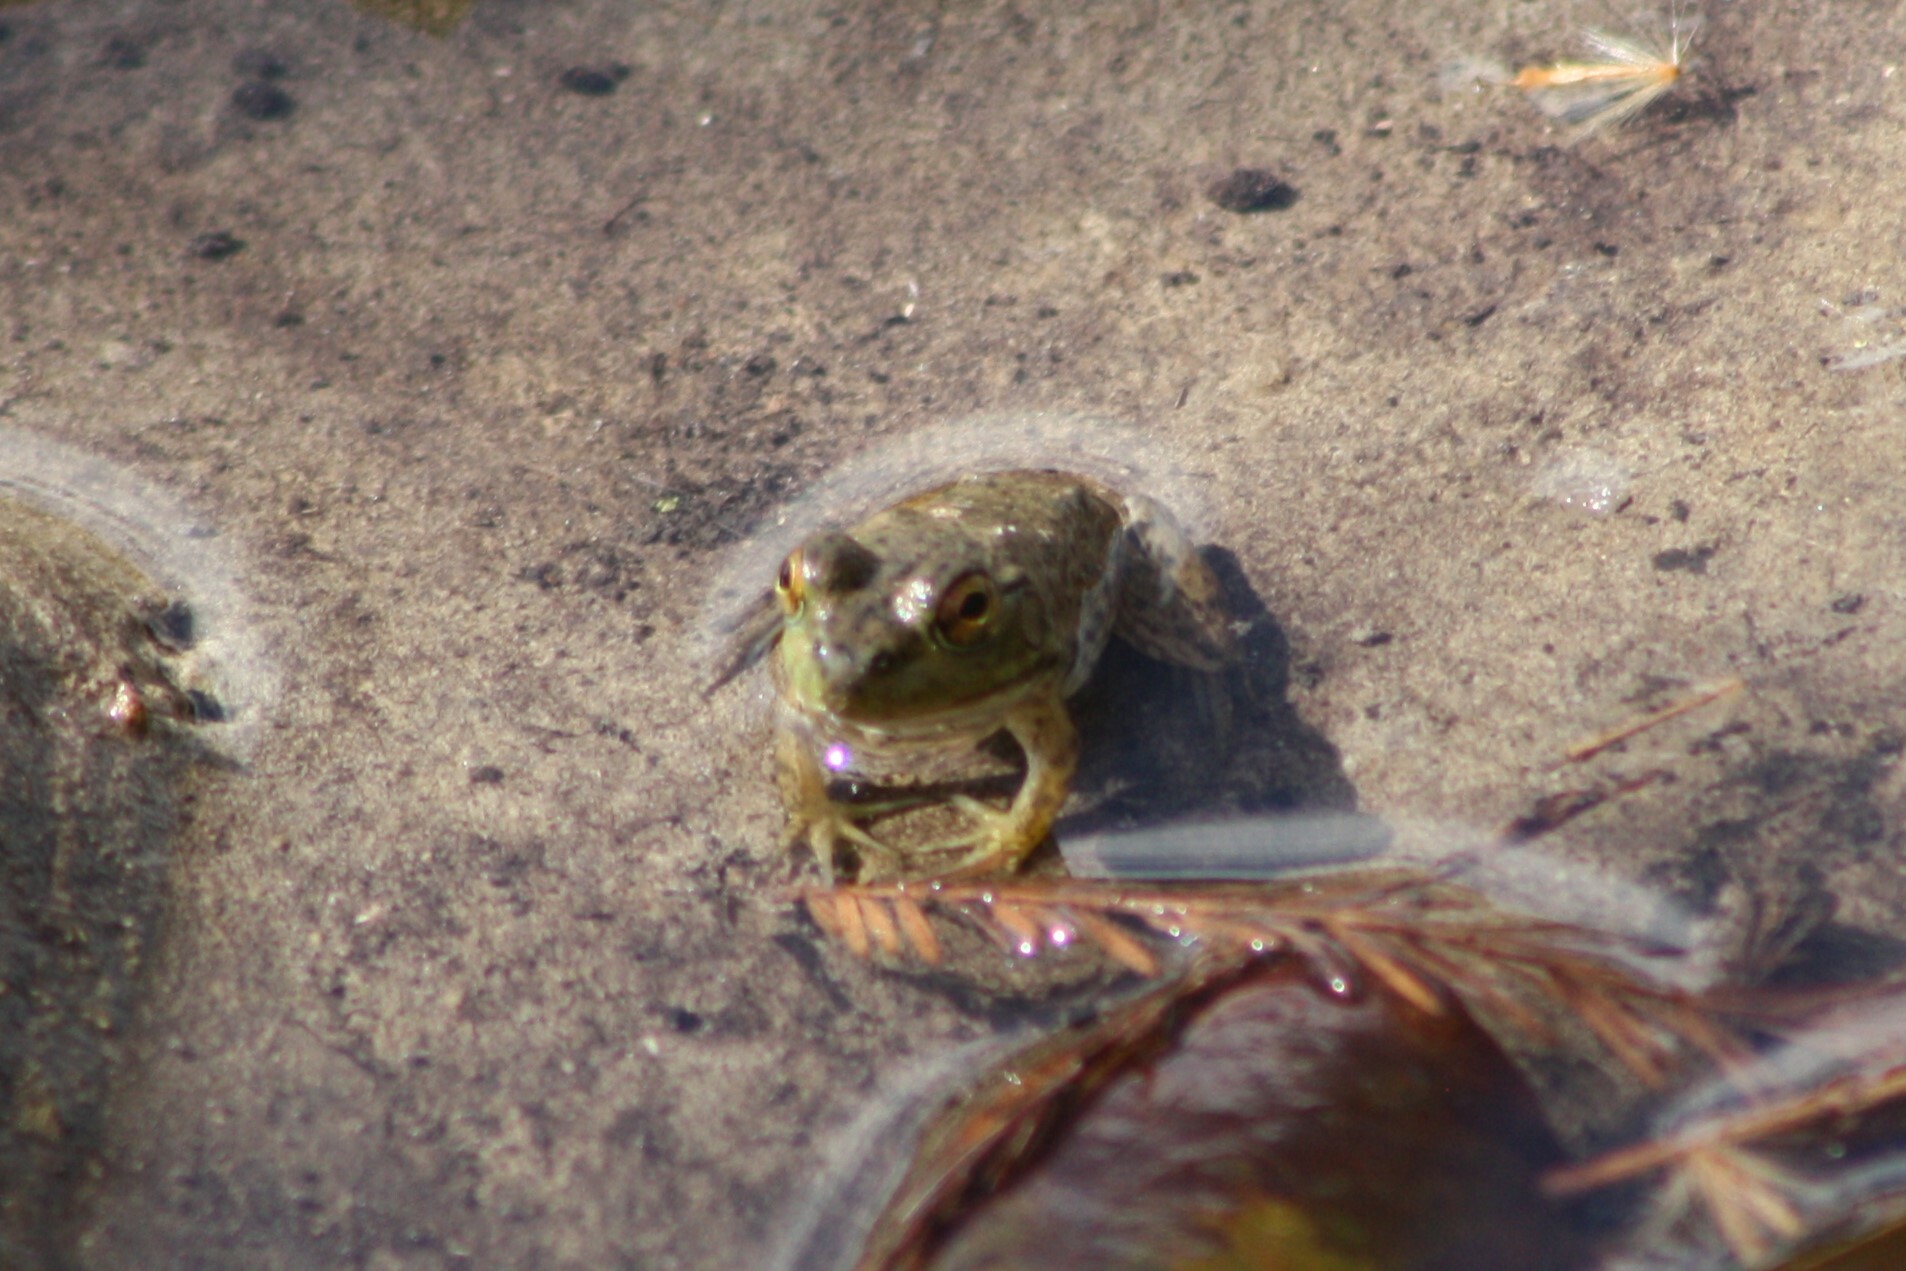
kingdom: Animalia
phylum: Chordata
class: Amphibia
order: Anura
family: Ranidae
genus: Lithobates
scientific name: Lithobates catesbeianus
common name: American bullfrog
